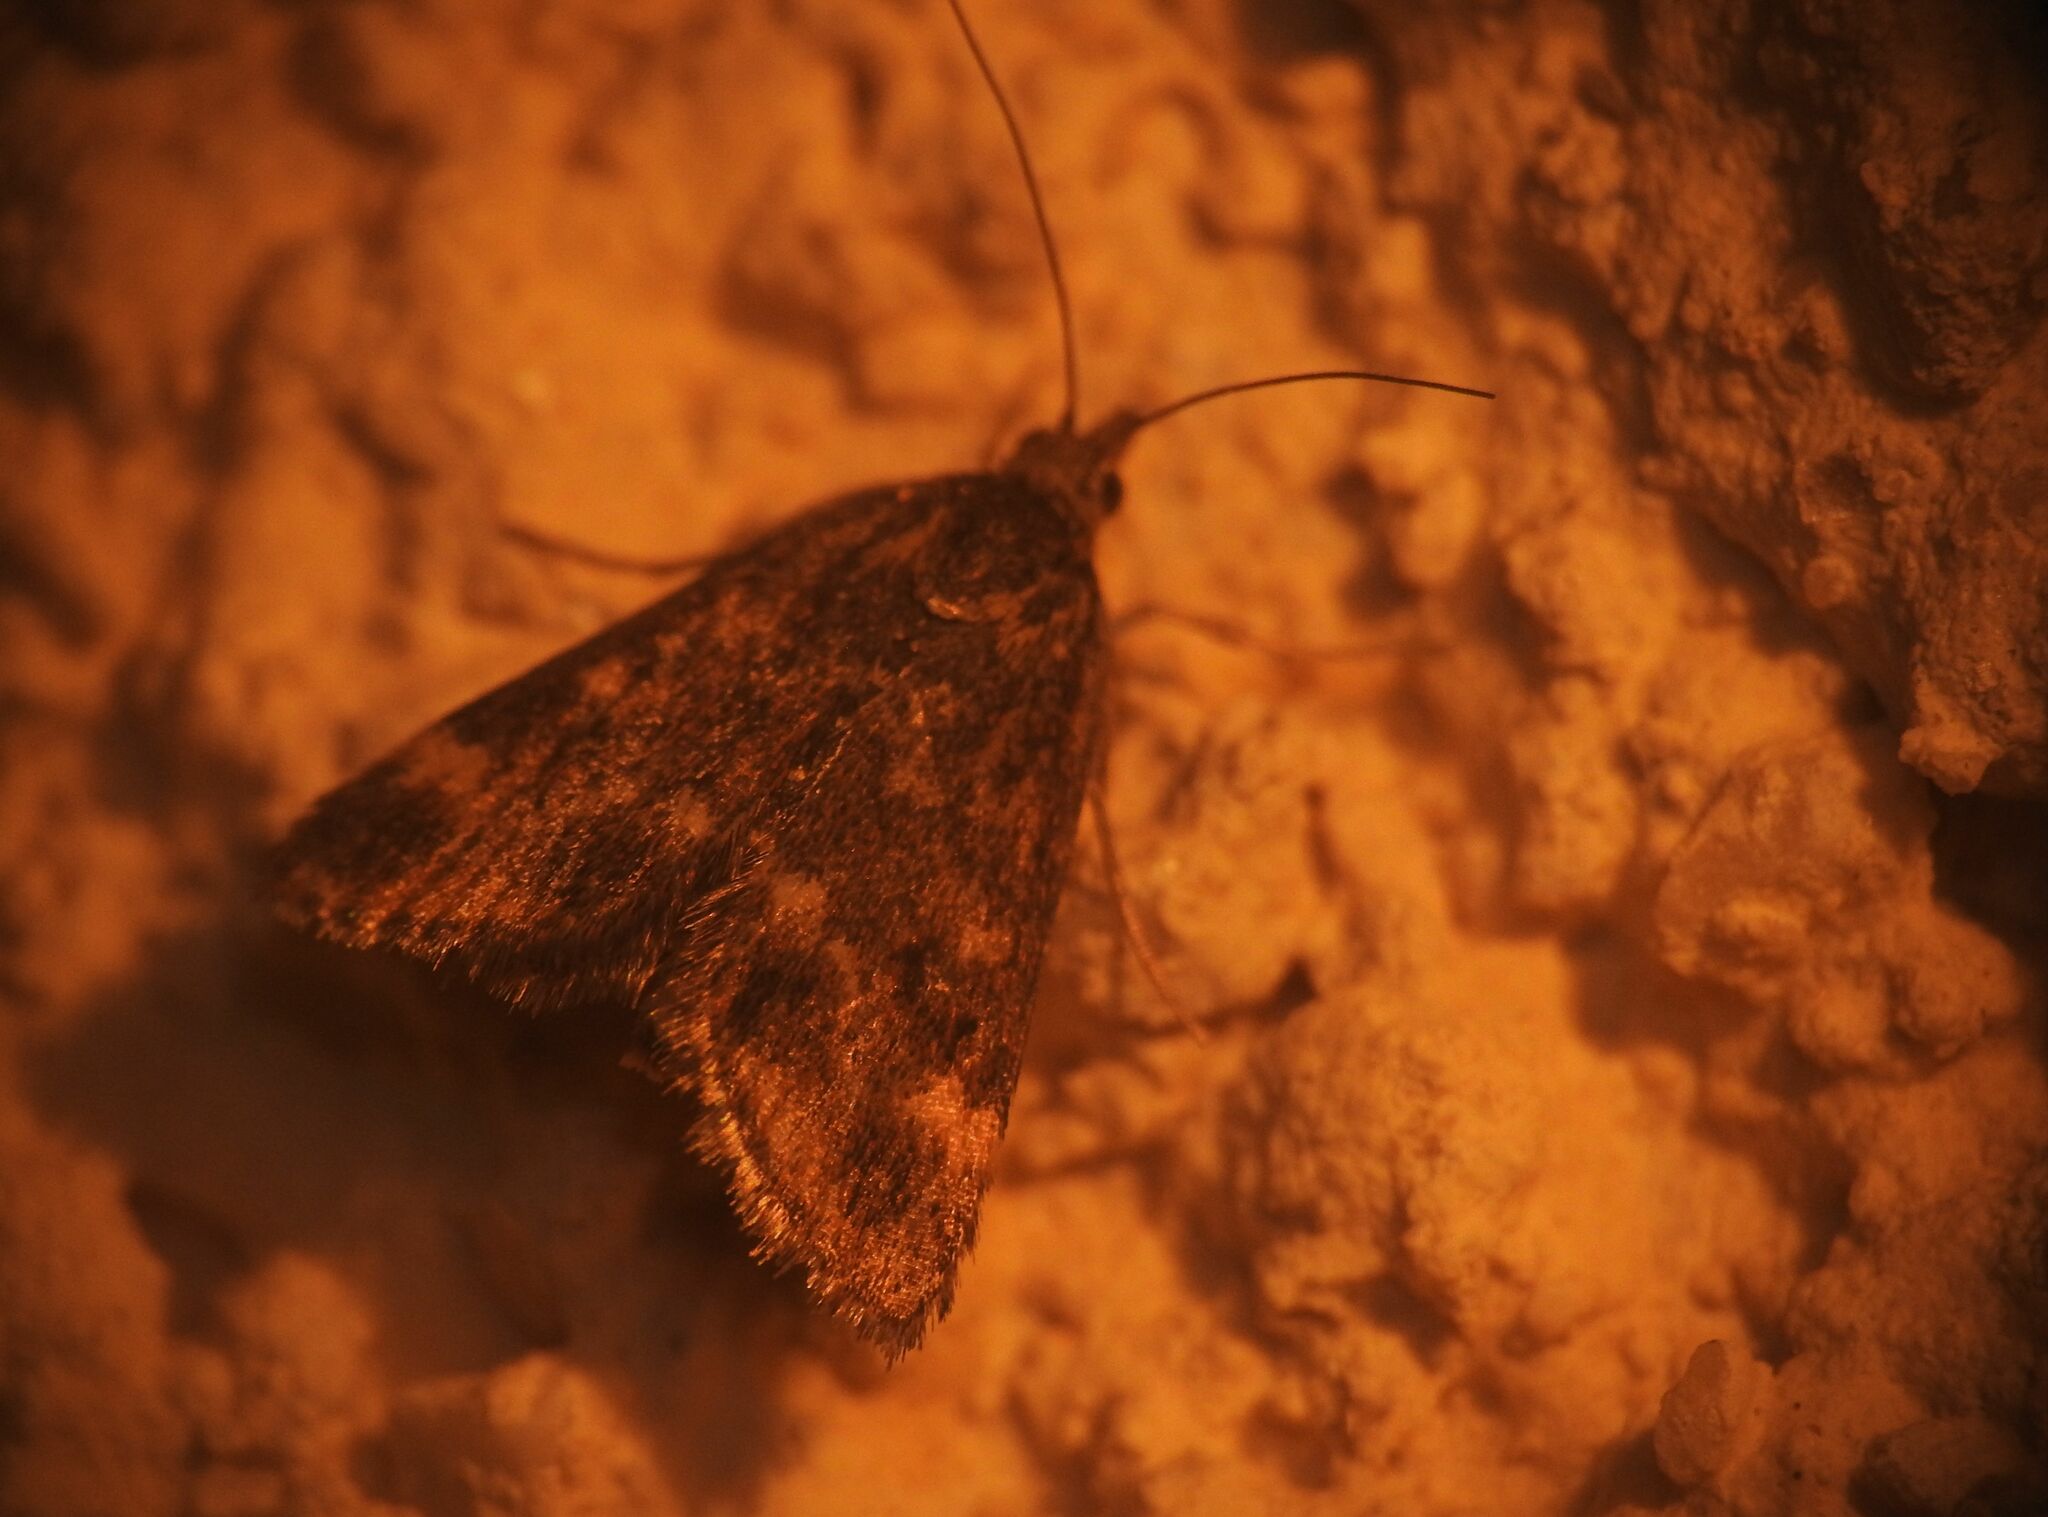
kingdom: Animalia
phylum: Arthropoda
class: Insecta
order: Lepidoptera
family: Crambidae
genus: Pyrausta
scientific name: Pyrausta despicata
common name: Straw-barred pearl
